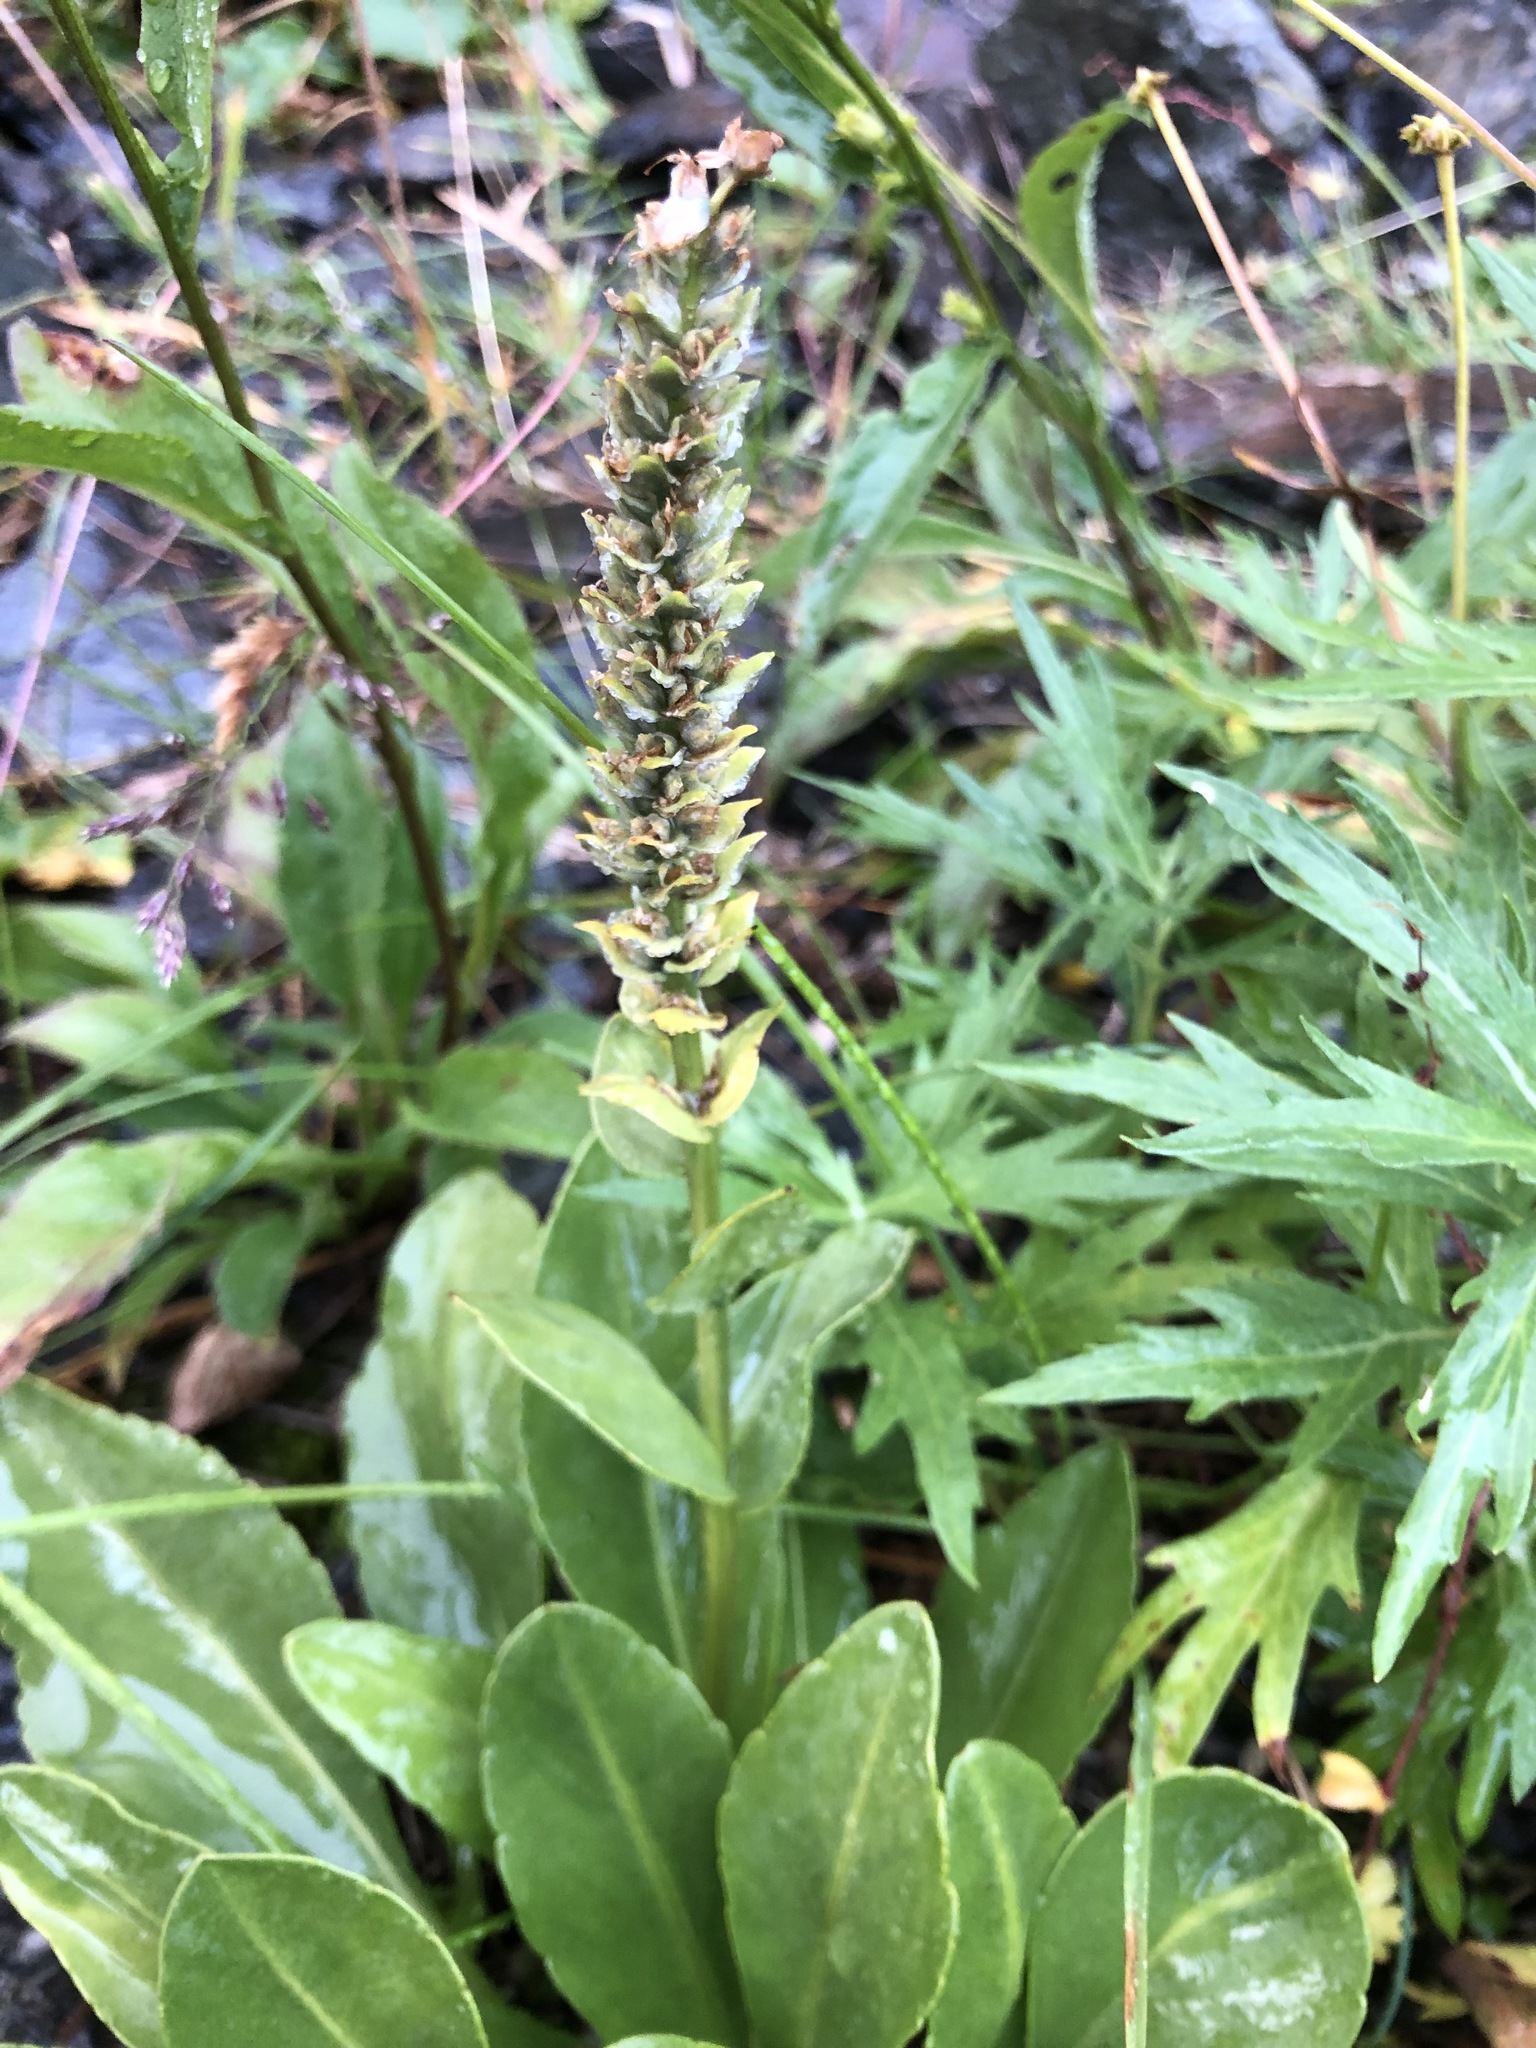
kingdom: Plantae
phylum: Tracheophyta
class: Magnoliopsida
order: Lamiales
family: Plantaginaceae
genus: Lagotis
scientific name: Lagotis glauca
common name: Glaucous weaselsnout
